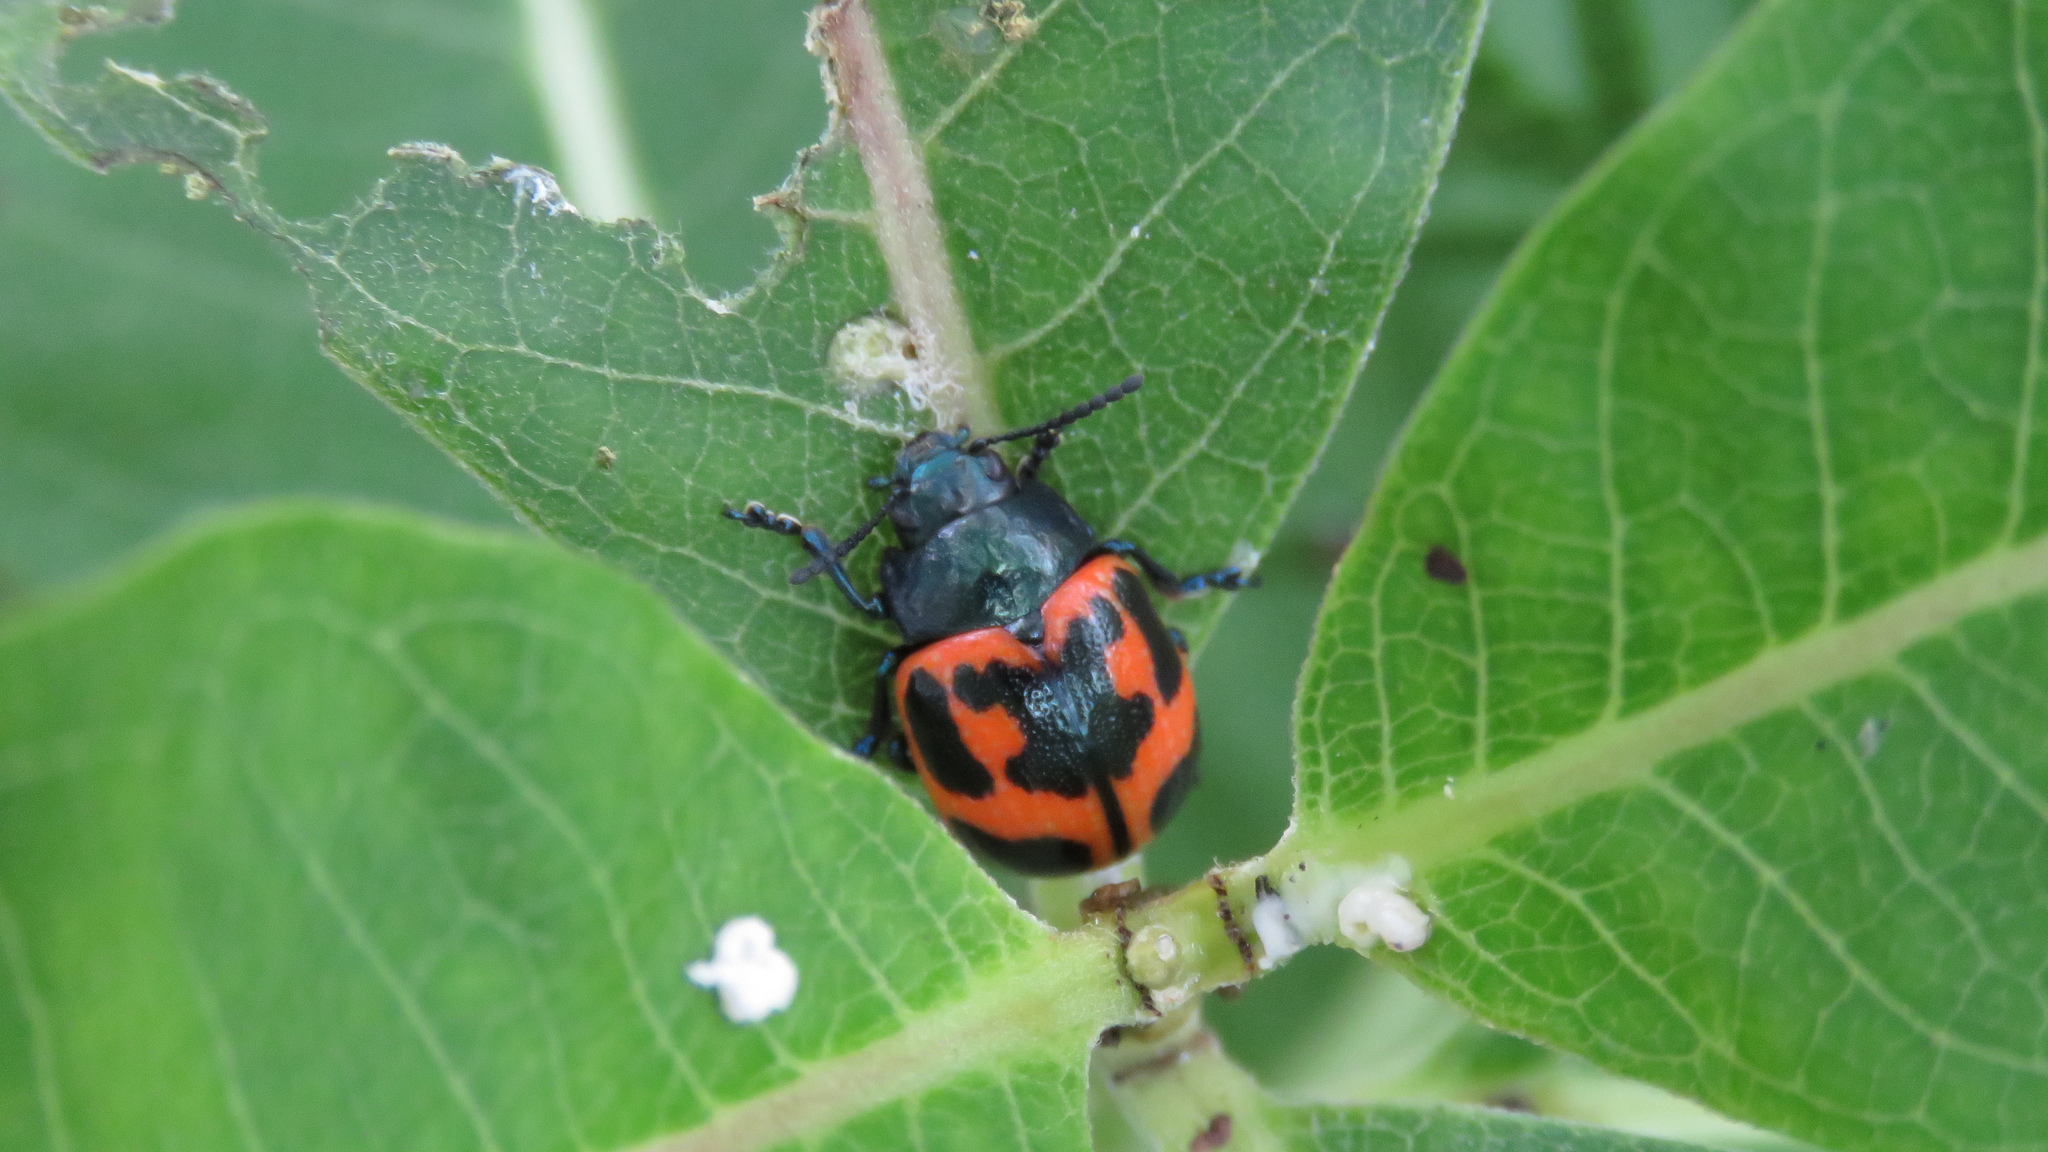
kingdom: Animalia
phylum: Arthropoda
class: Insecta
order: Coleoptera
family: Chrysomelidae
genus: Labidomera
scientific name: Labidomera clivicollis
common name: Swamp milkweed leaf beetle
